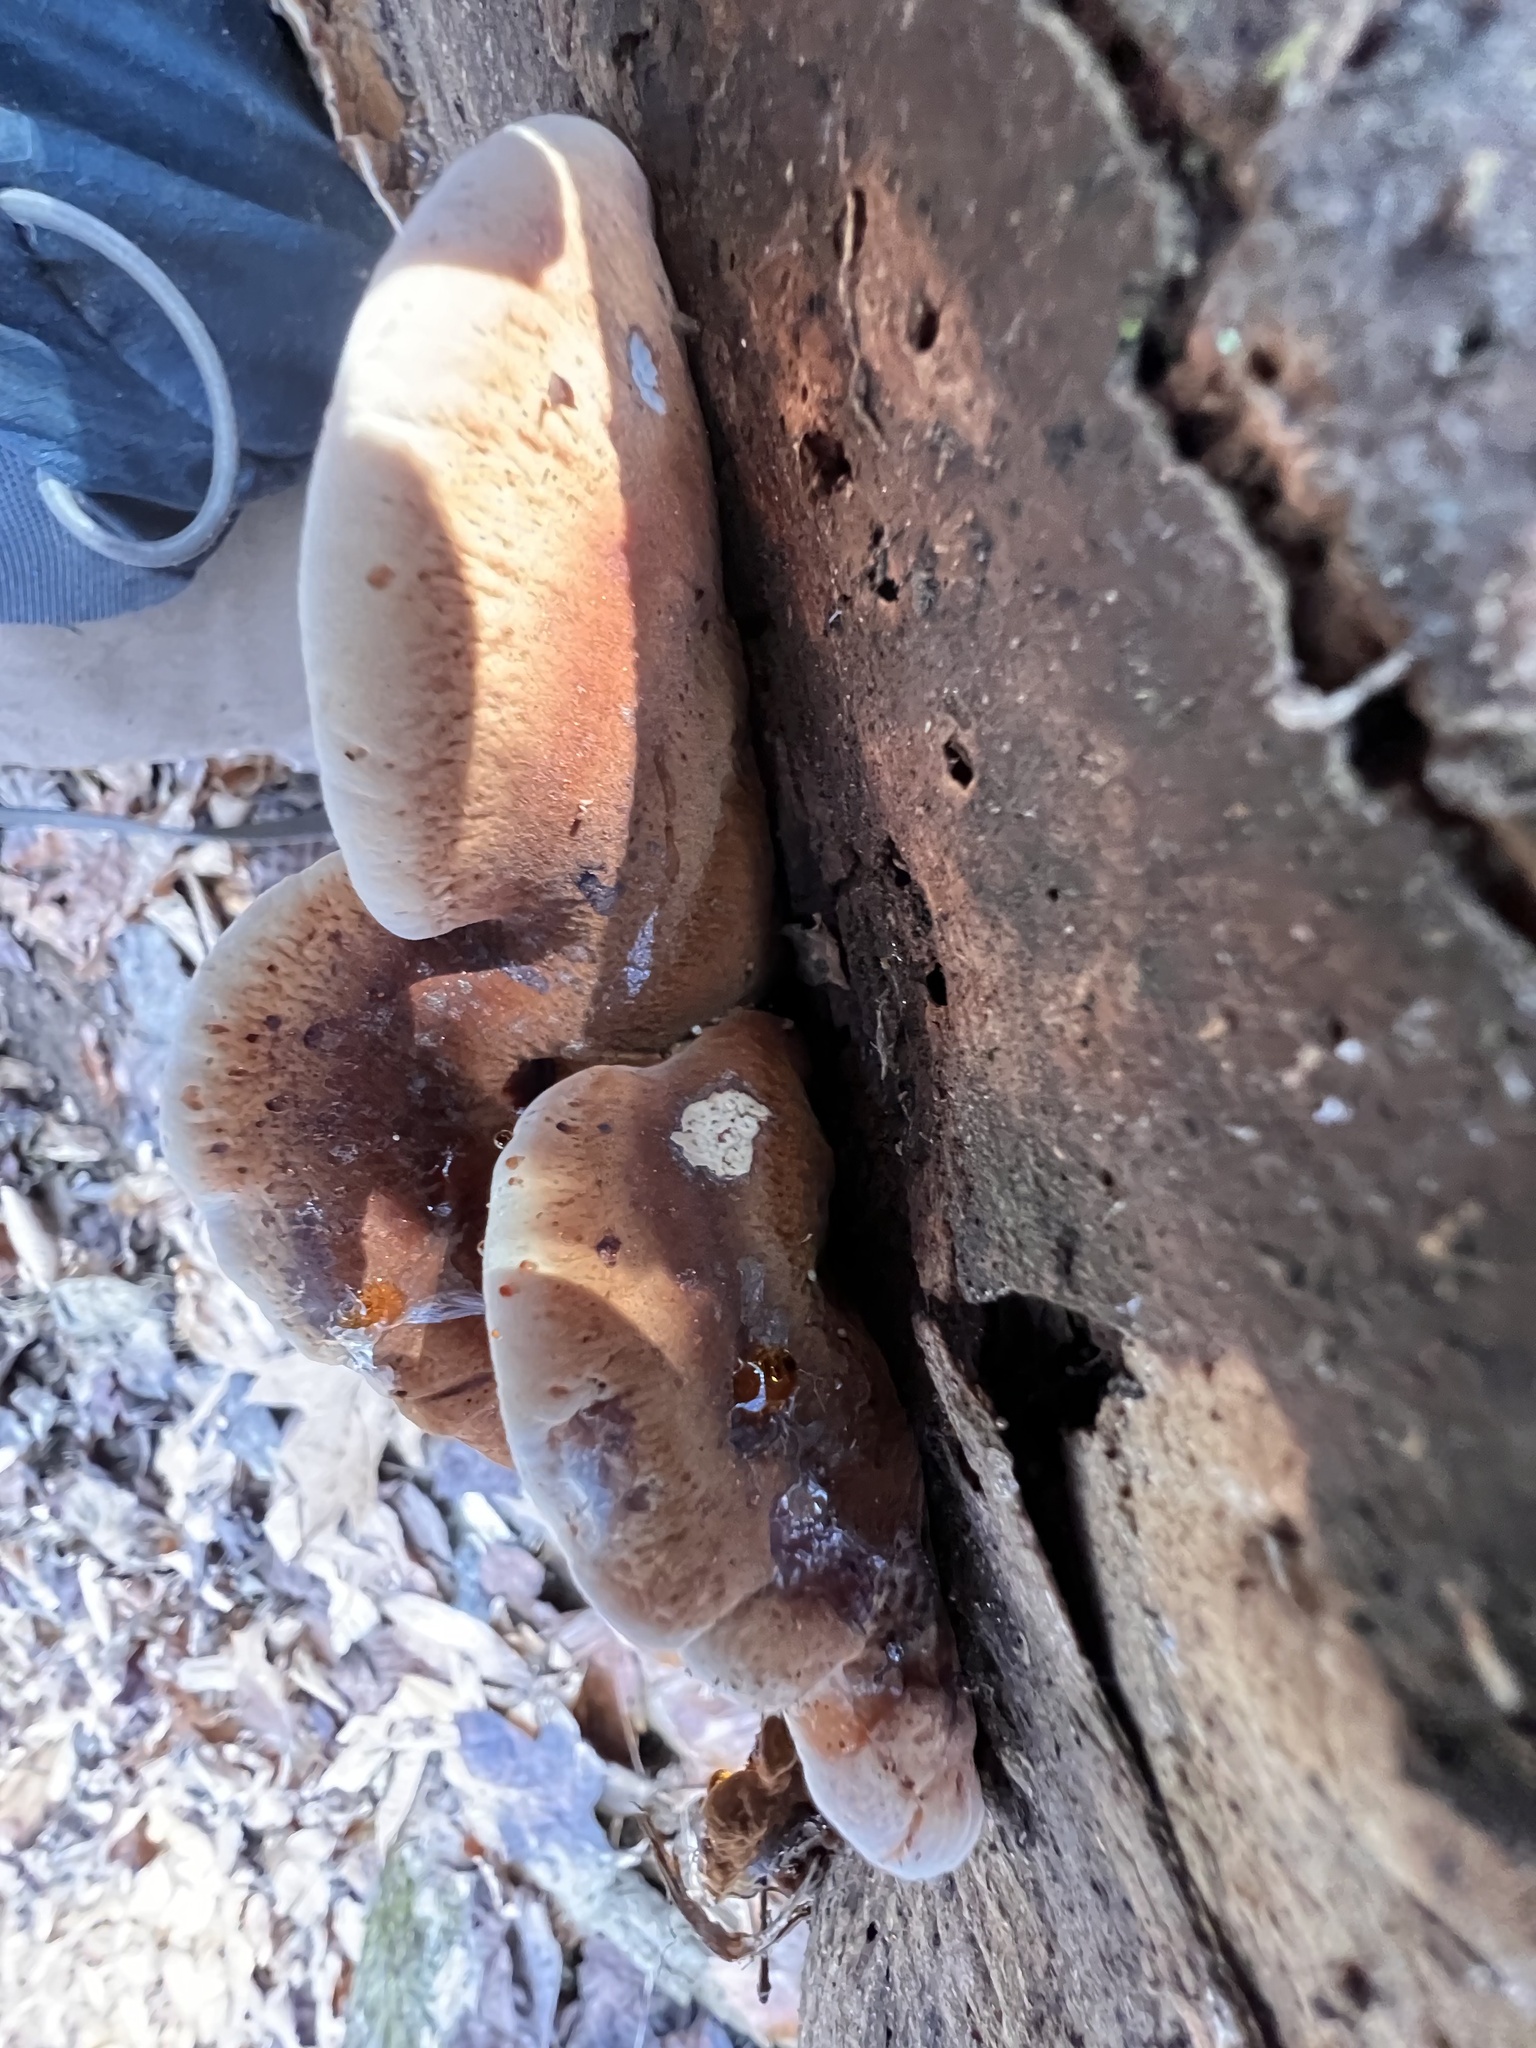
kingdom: Fungi
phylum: Basidiomycota
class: Agaricomycetes
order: Polyporales
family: Ischnodermataceae
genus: Ischnoderma
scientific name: Ischnoderma resinosum
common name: Resinous polypore
